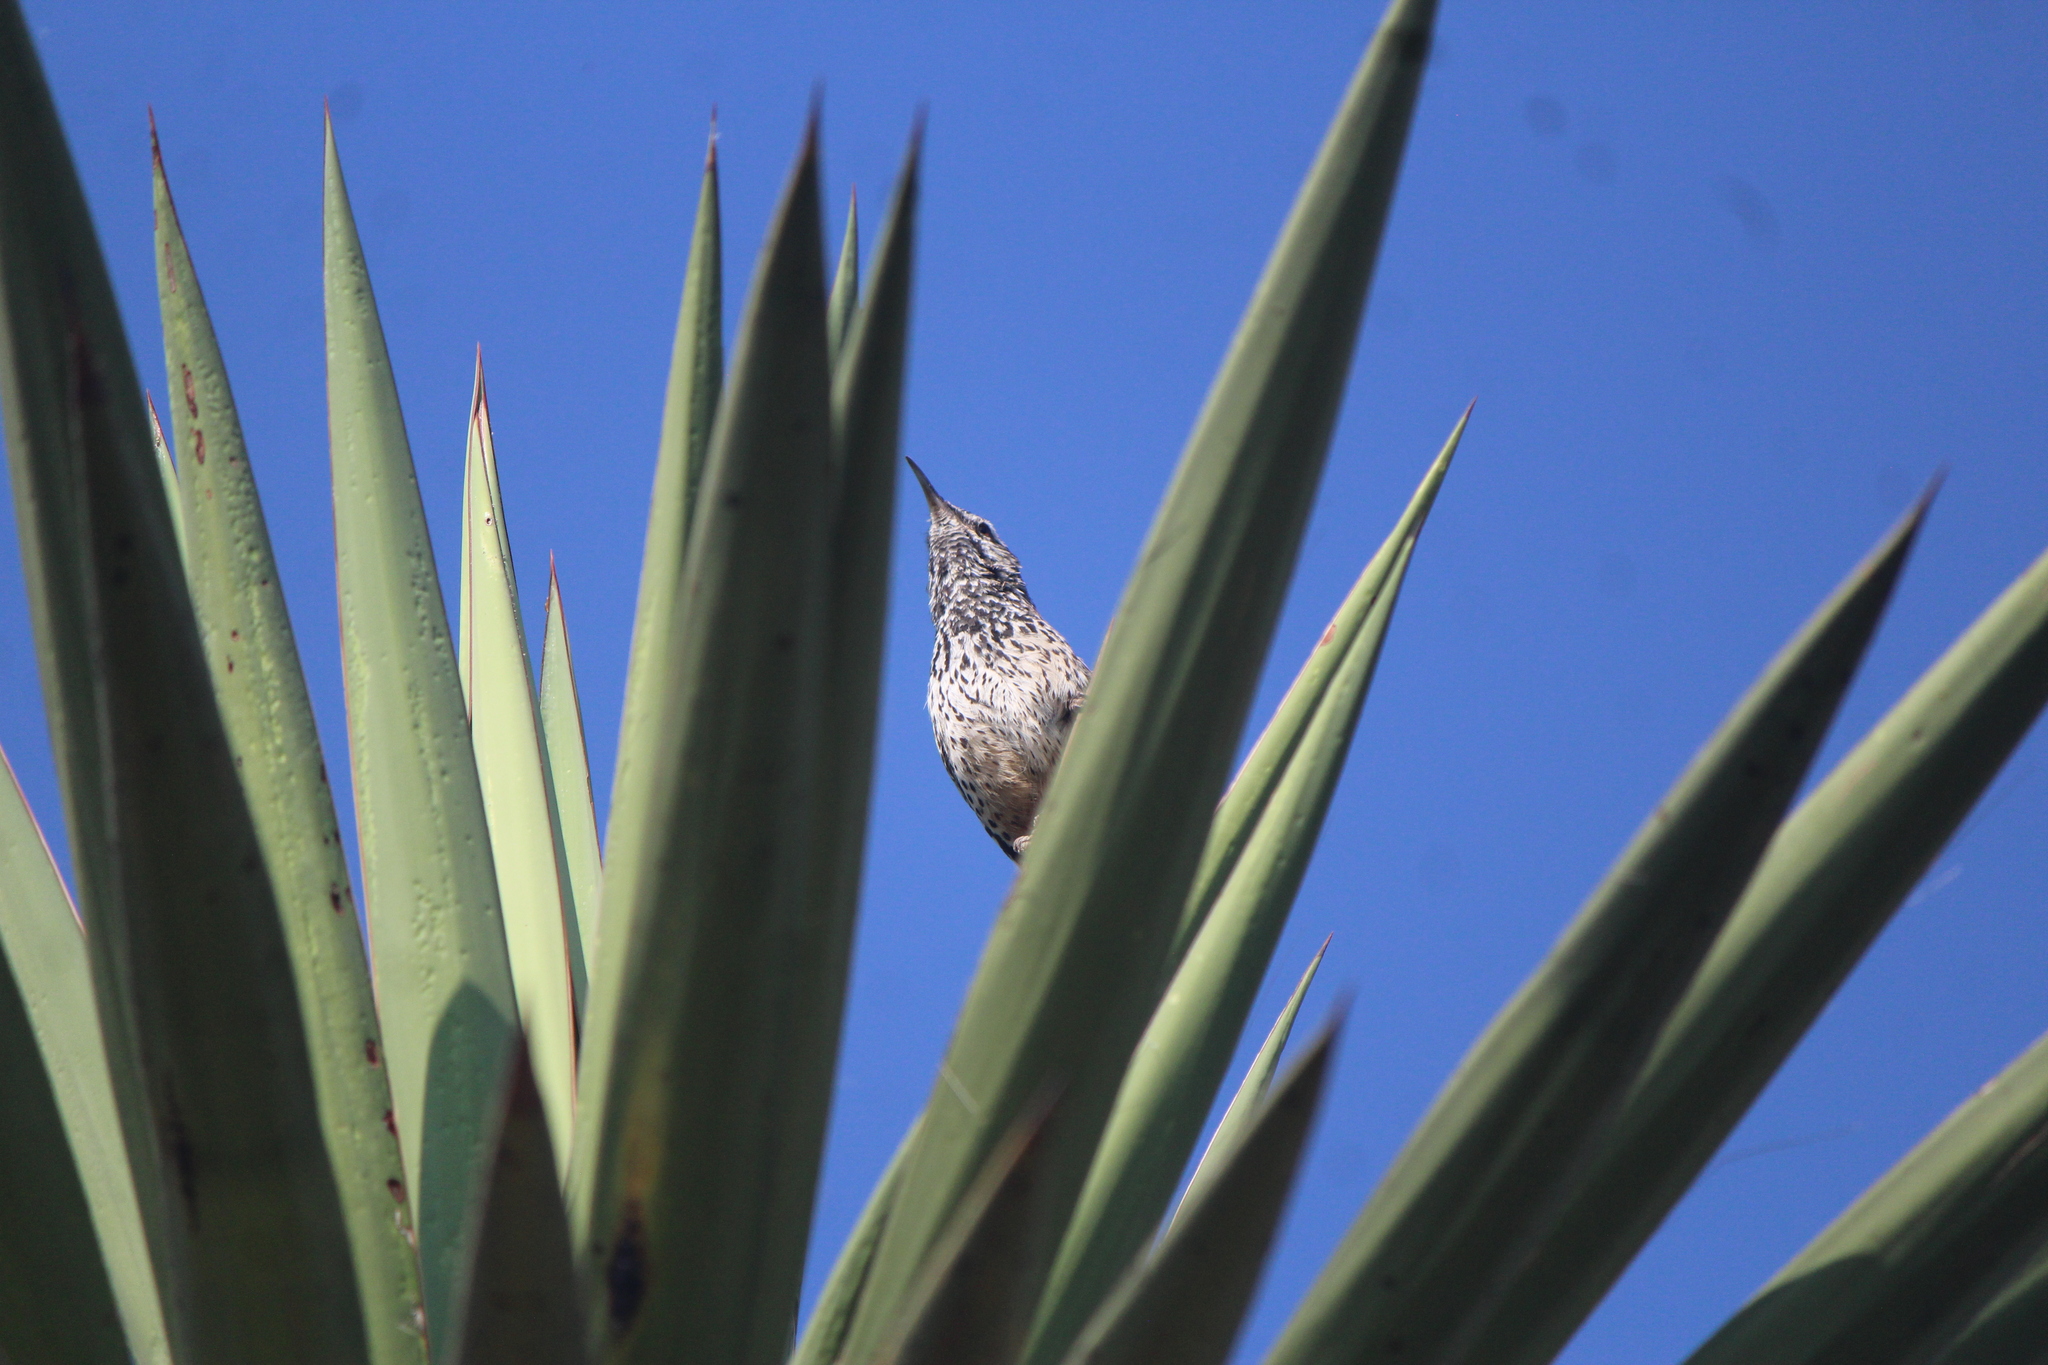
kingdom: Animalia
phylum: Chordata
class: Aves
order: Passeriformes
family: Troglodytidae
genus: Campylorhynchus
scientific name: Campylorhynchus brunneicapillus
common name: Cactus wren
